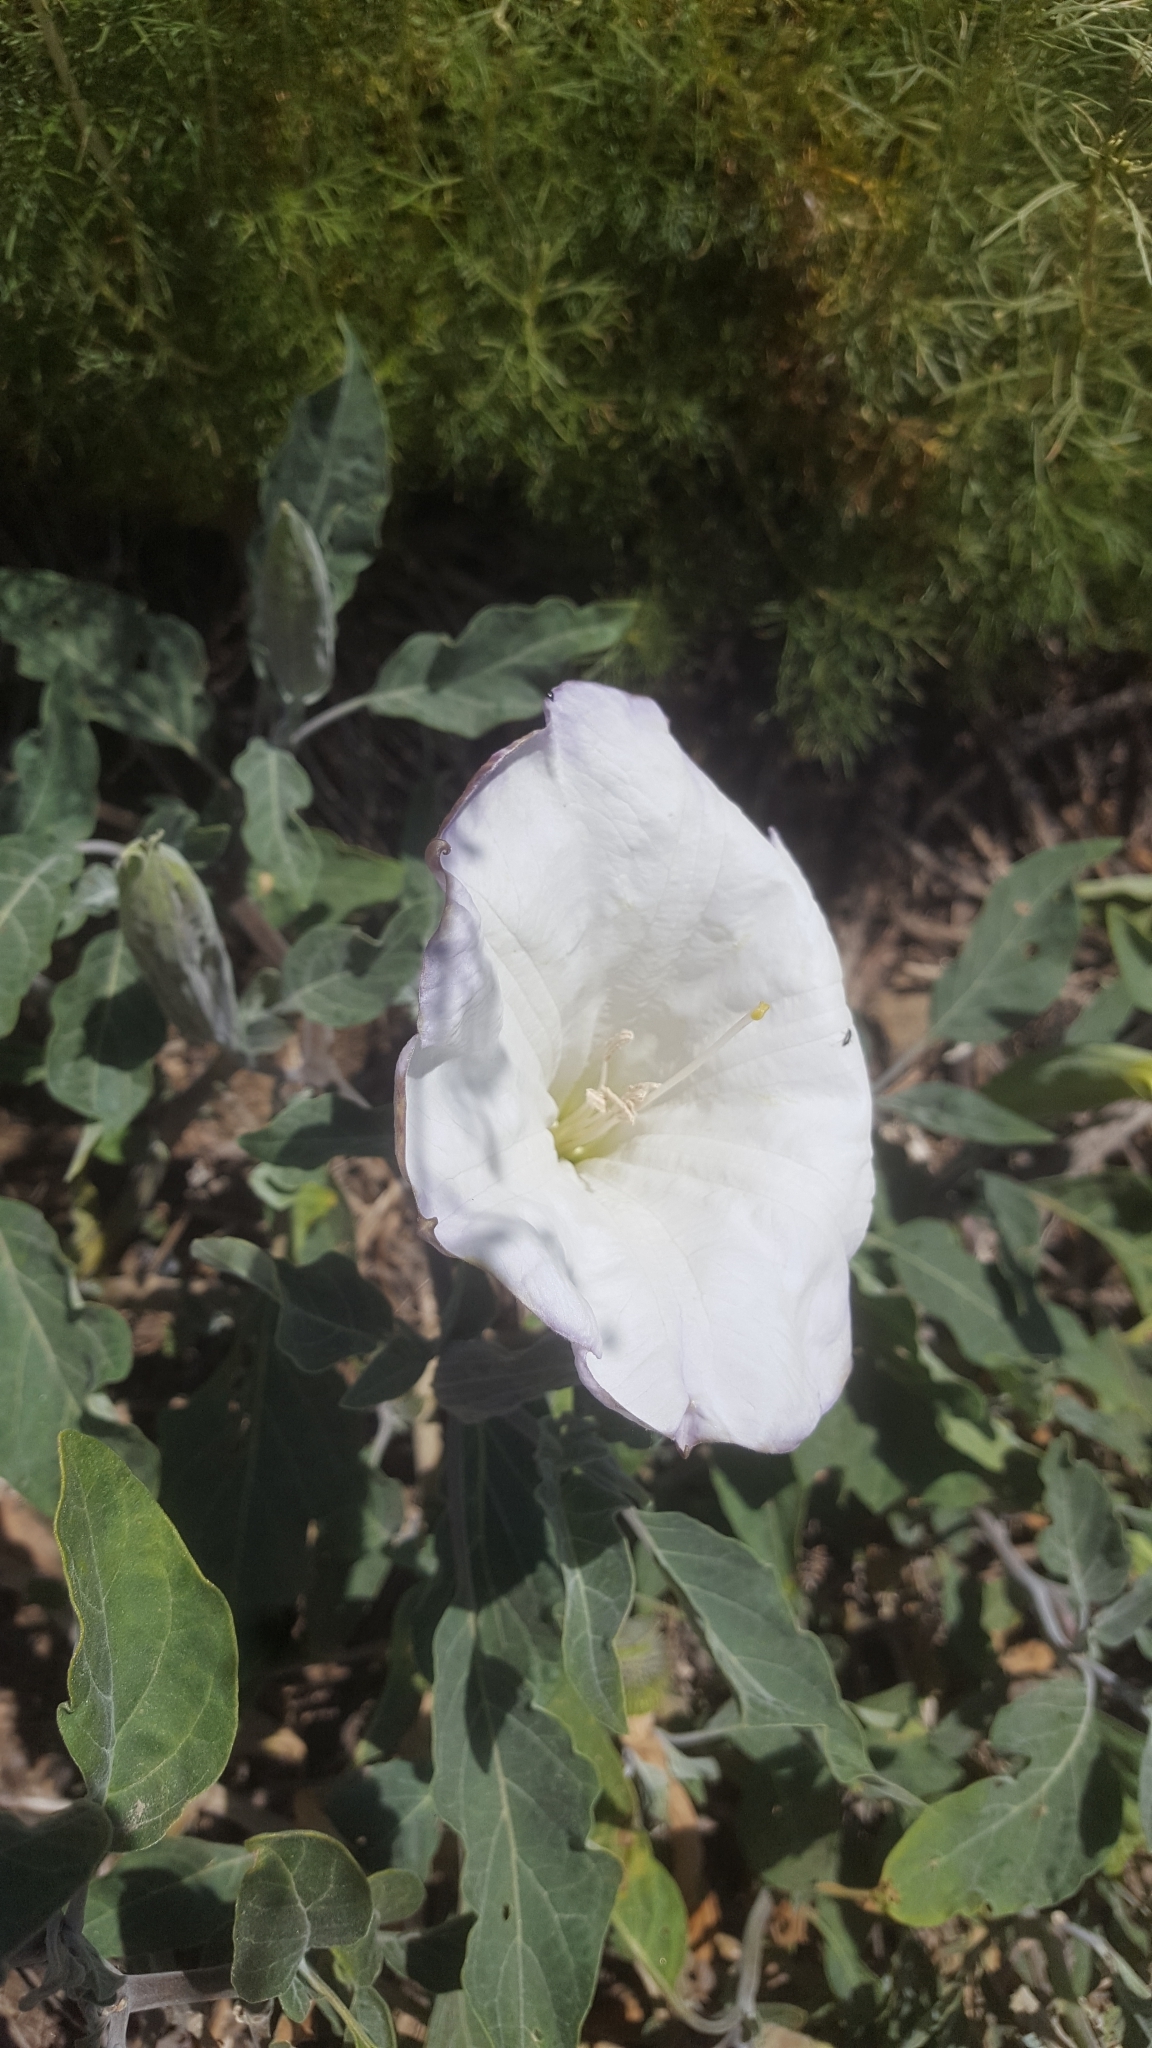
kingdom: Plantae
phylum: Tracheophyta
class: Magnoliopsida
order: Solanales
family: Solanaceae
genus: Datura
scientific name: Datura wrightii
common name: Sacred thorn-apple
